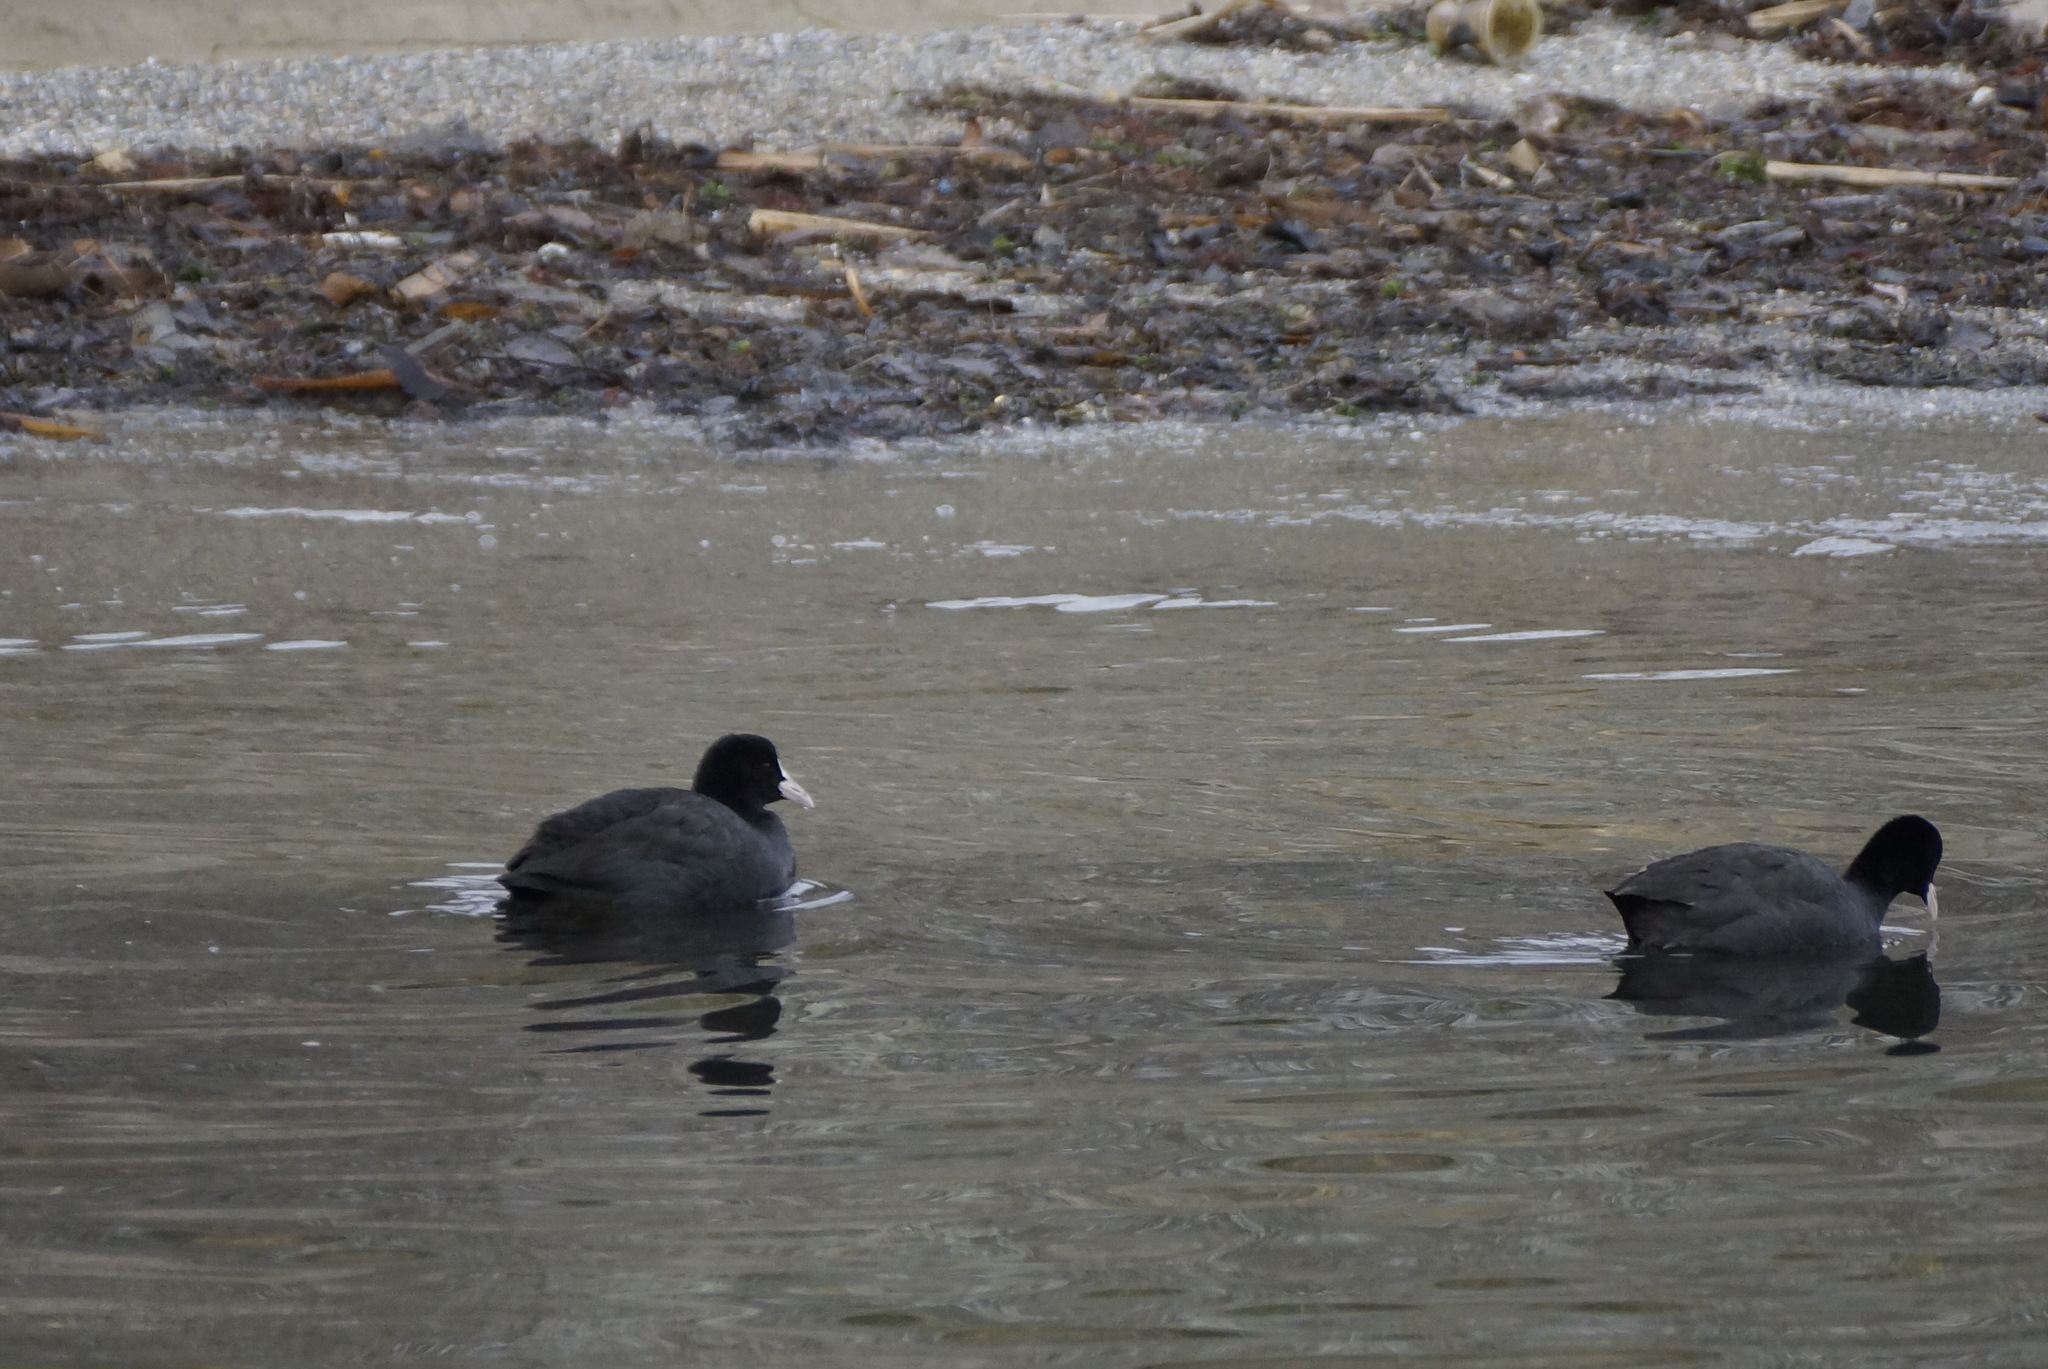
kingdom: Animalia
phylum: Chordata
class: Aves
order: Gruiformes
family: Rallidae
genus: Fulica
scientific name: Fulica atra
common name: Eurasian coot
